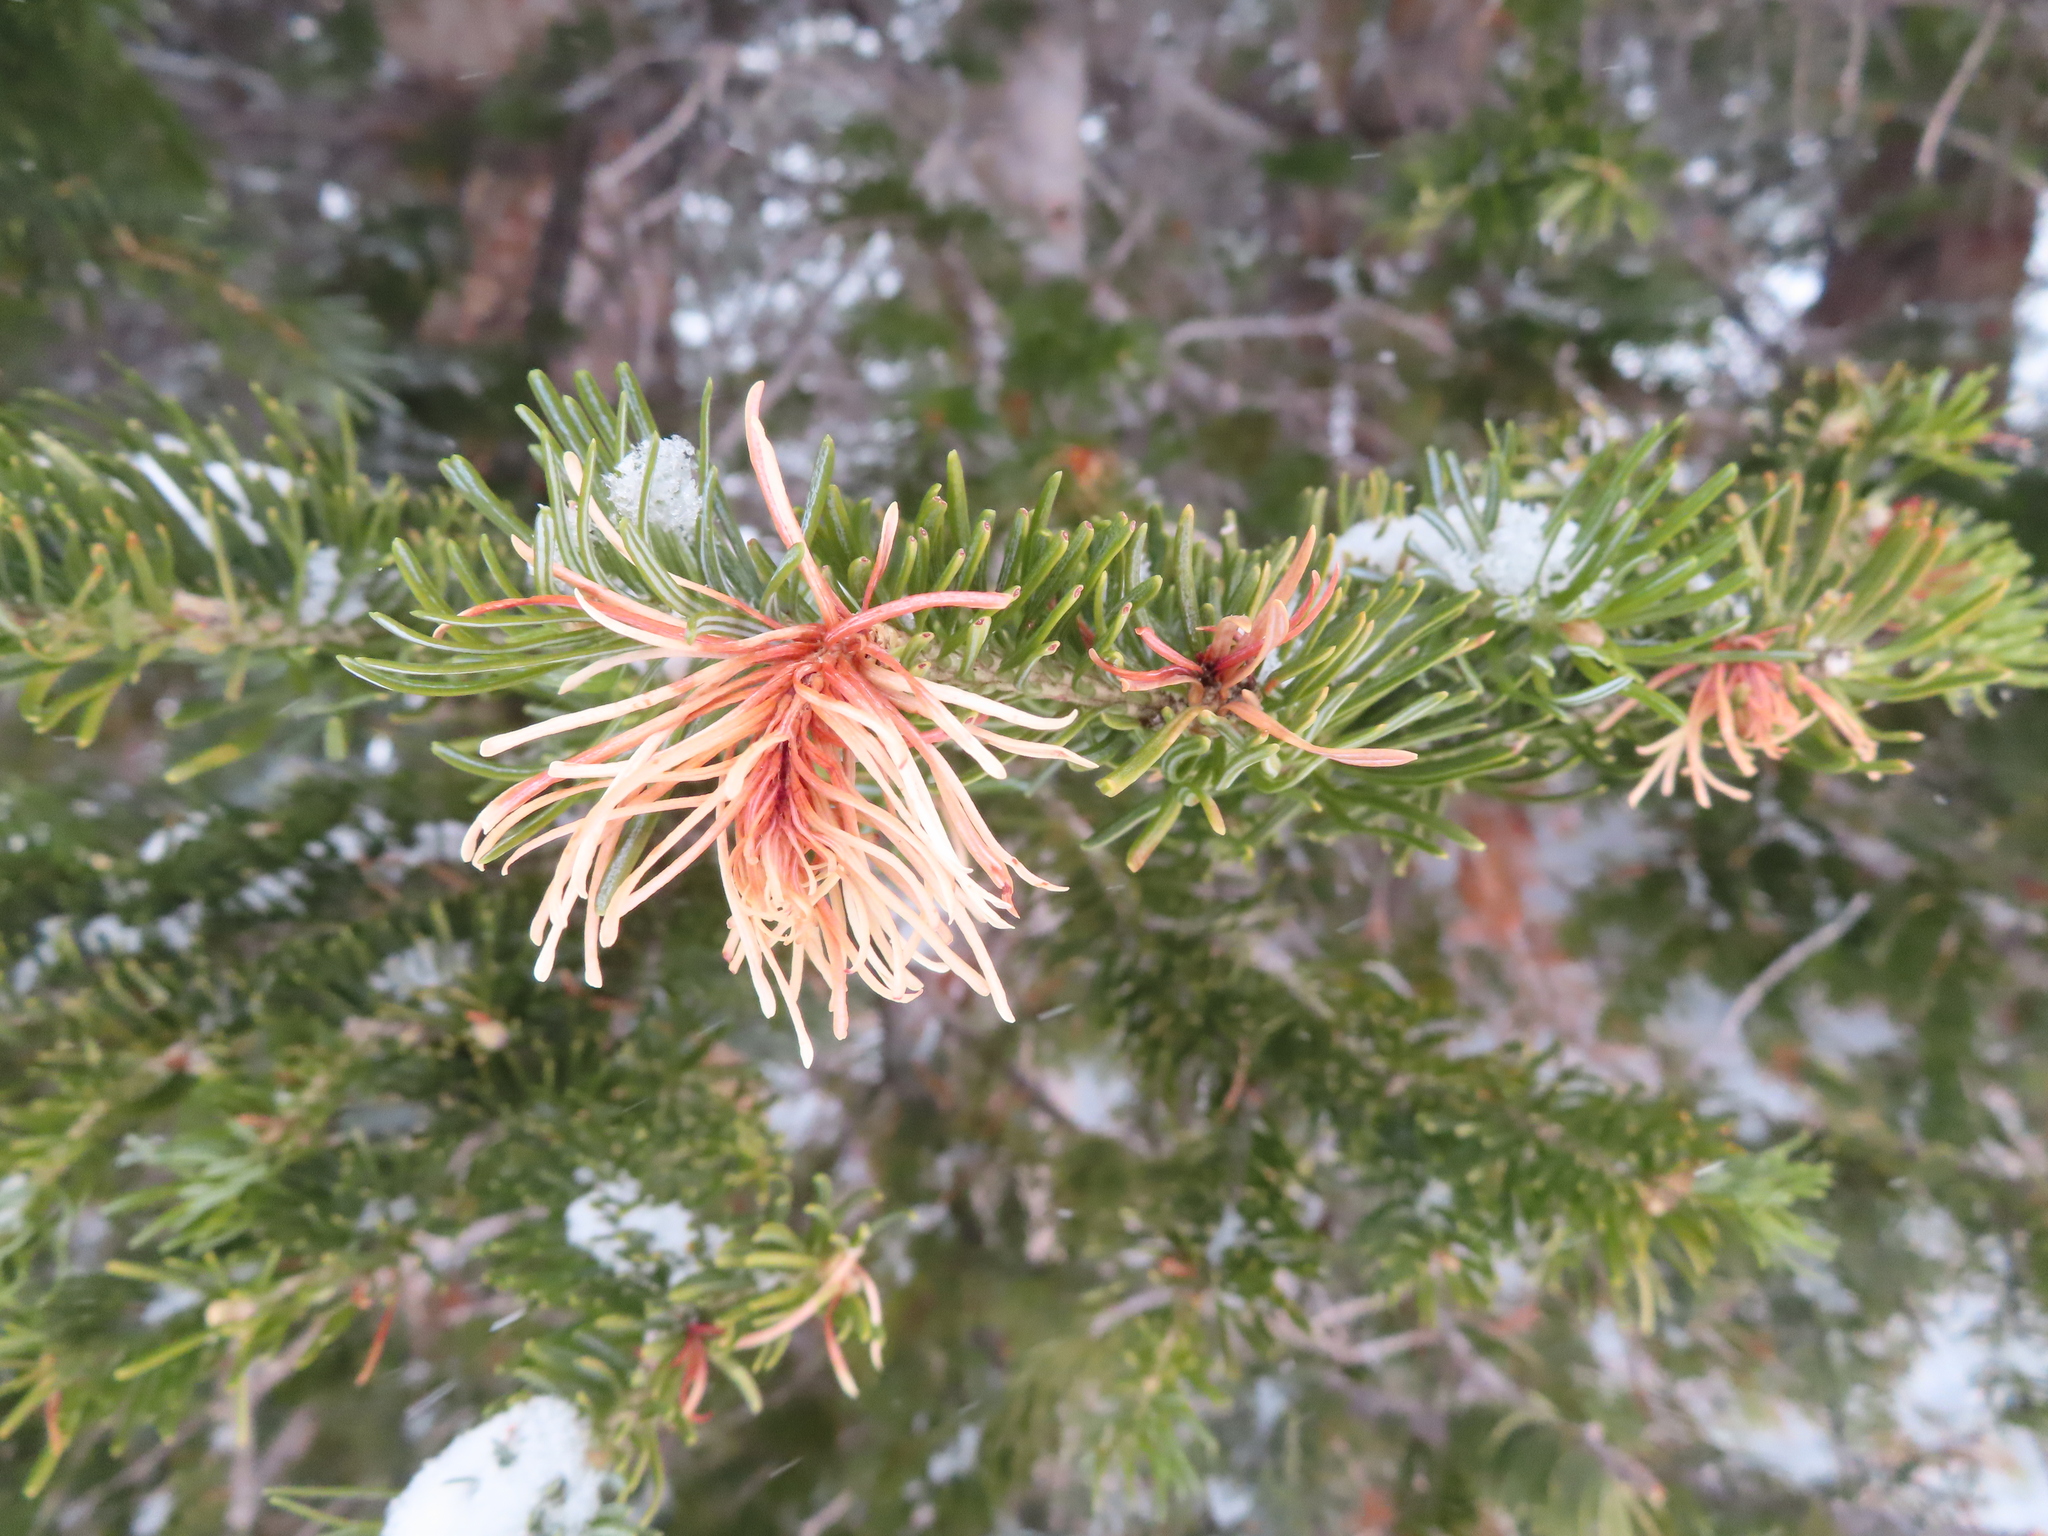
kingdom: Plantae
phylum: Tracheophyta
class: Pinopsida
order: Pinales
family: Pinaceae
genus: Abies
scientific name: Abies lasiocarpa
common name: Subalpine fir
